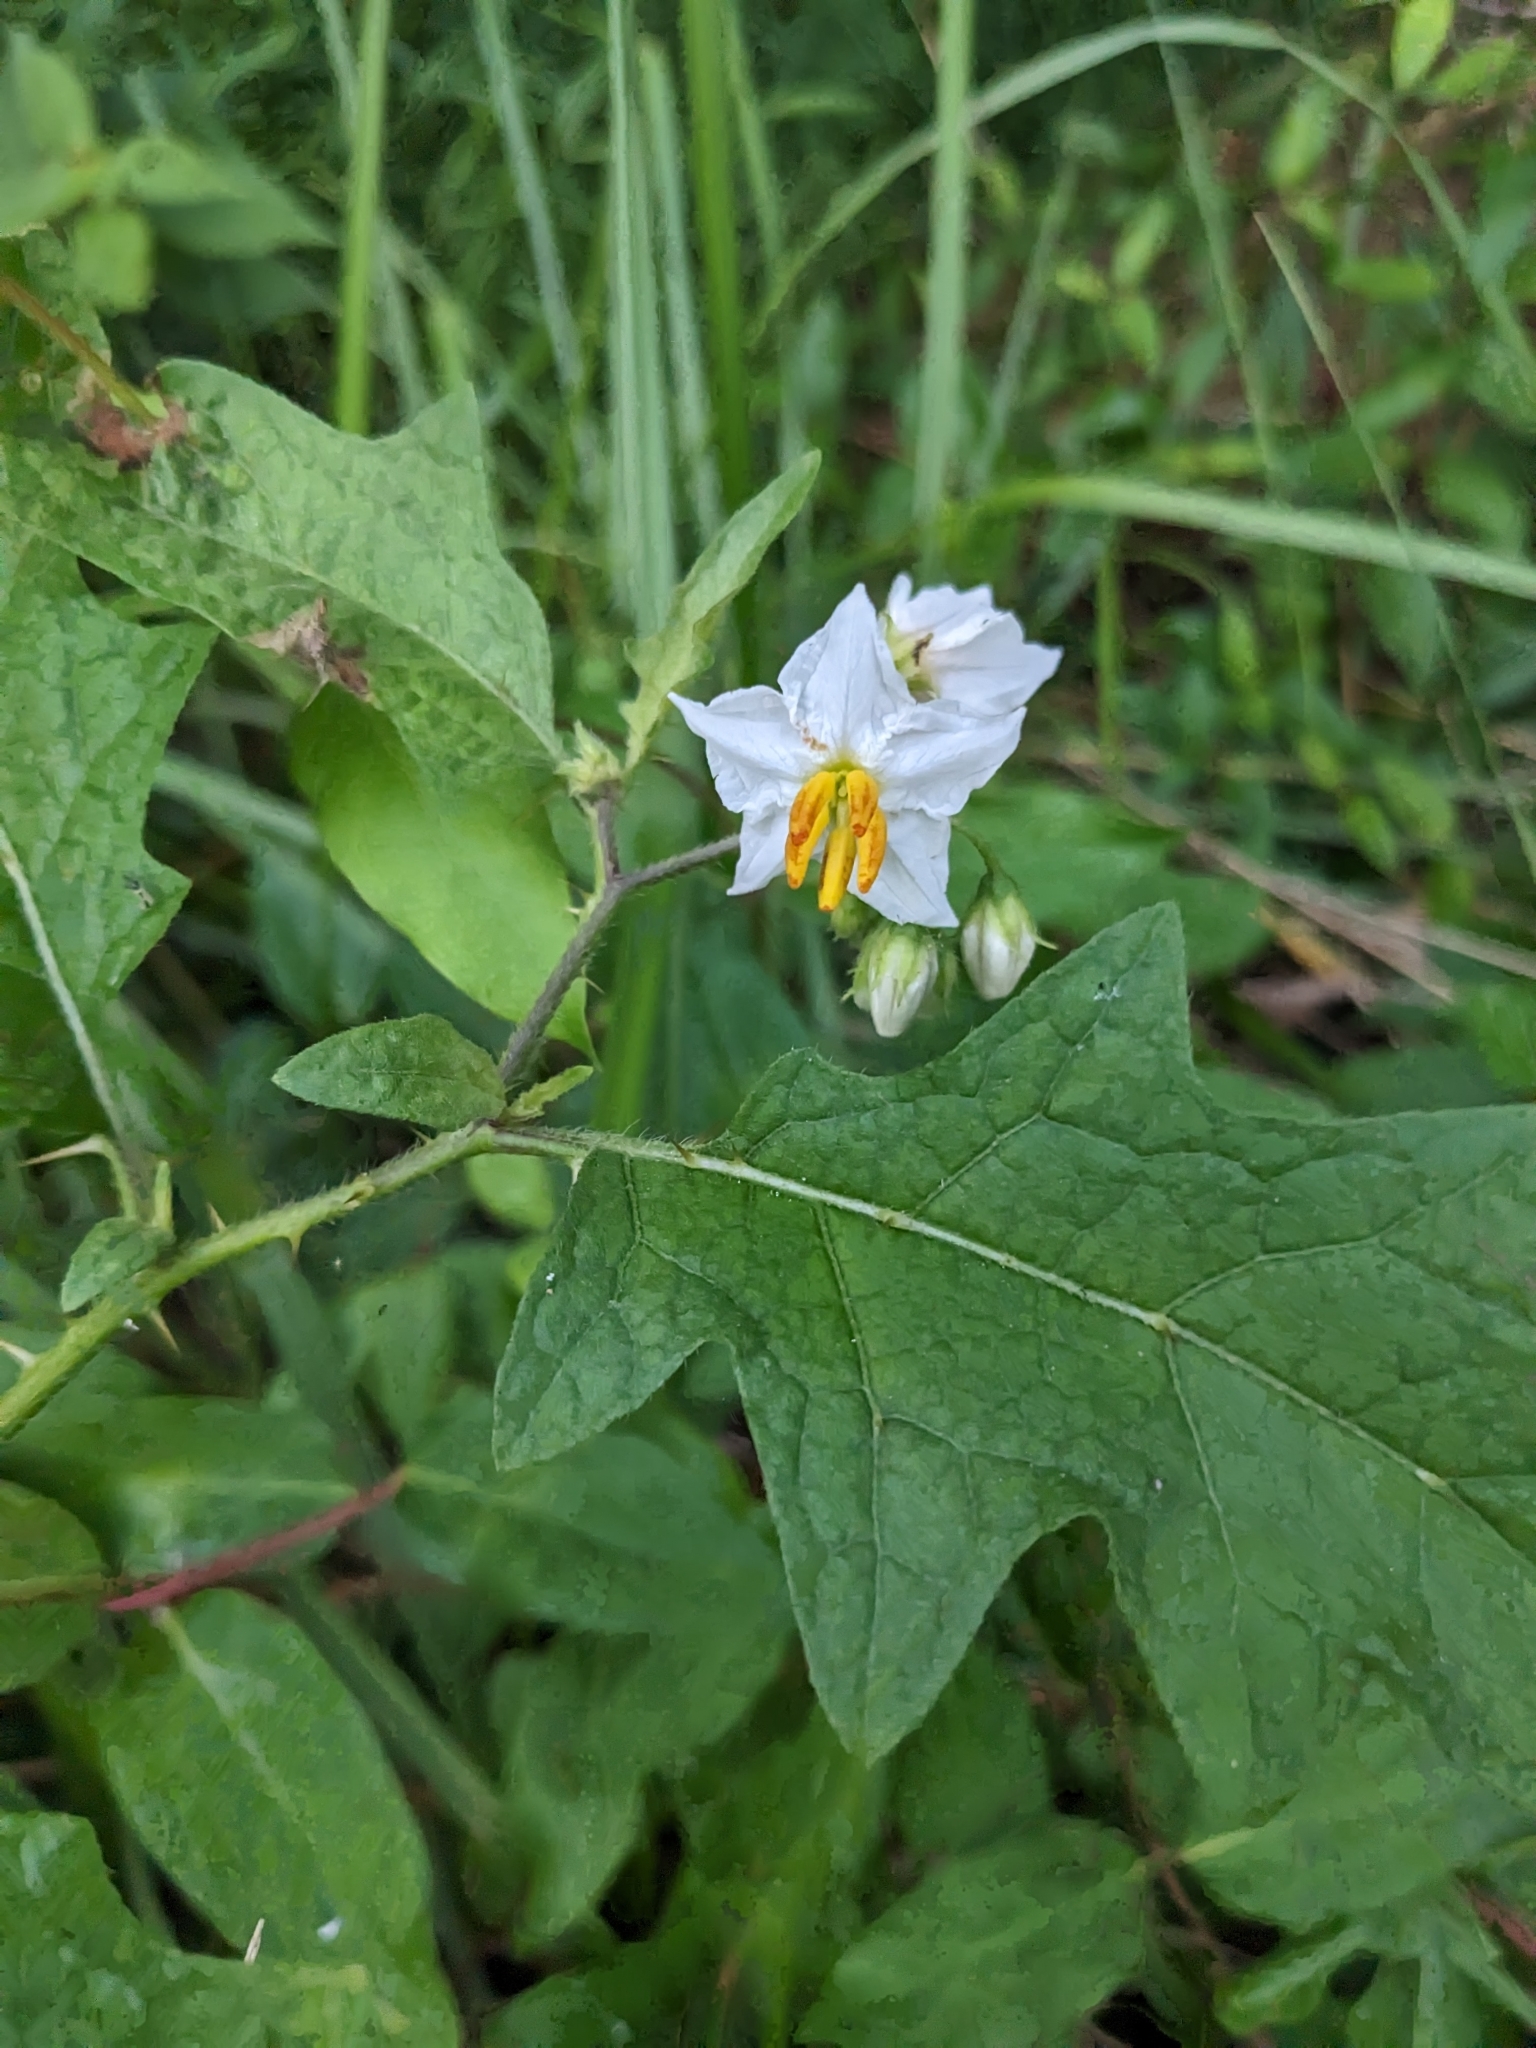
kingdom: Plantae
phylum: Tracheophyta
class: Magnoliopsida
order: Solanales
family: Solanaceae
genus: Solanum
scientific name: Solanum carolinense
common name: Horse-nettle
